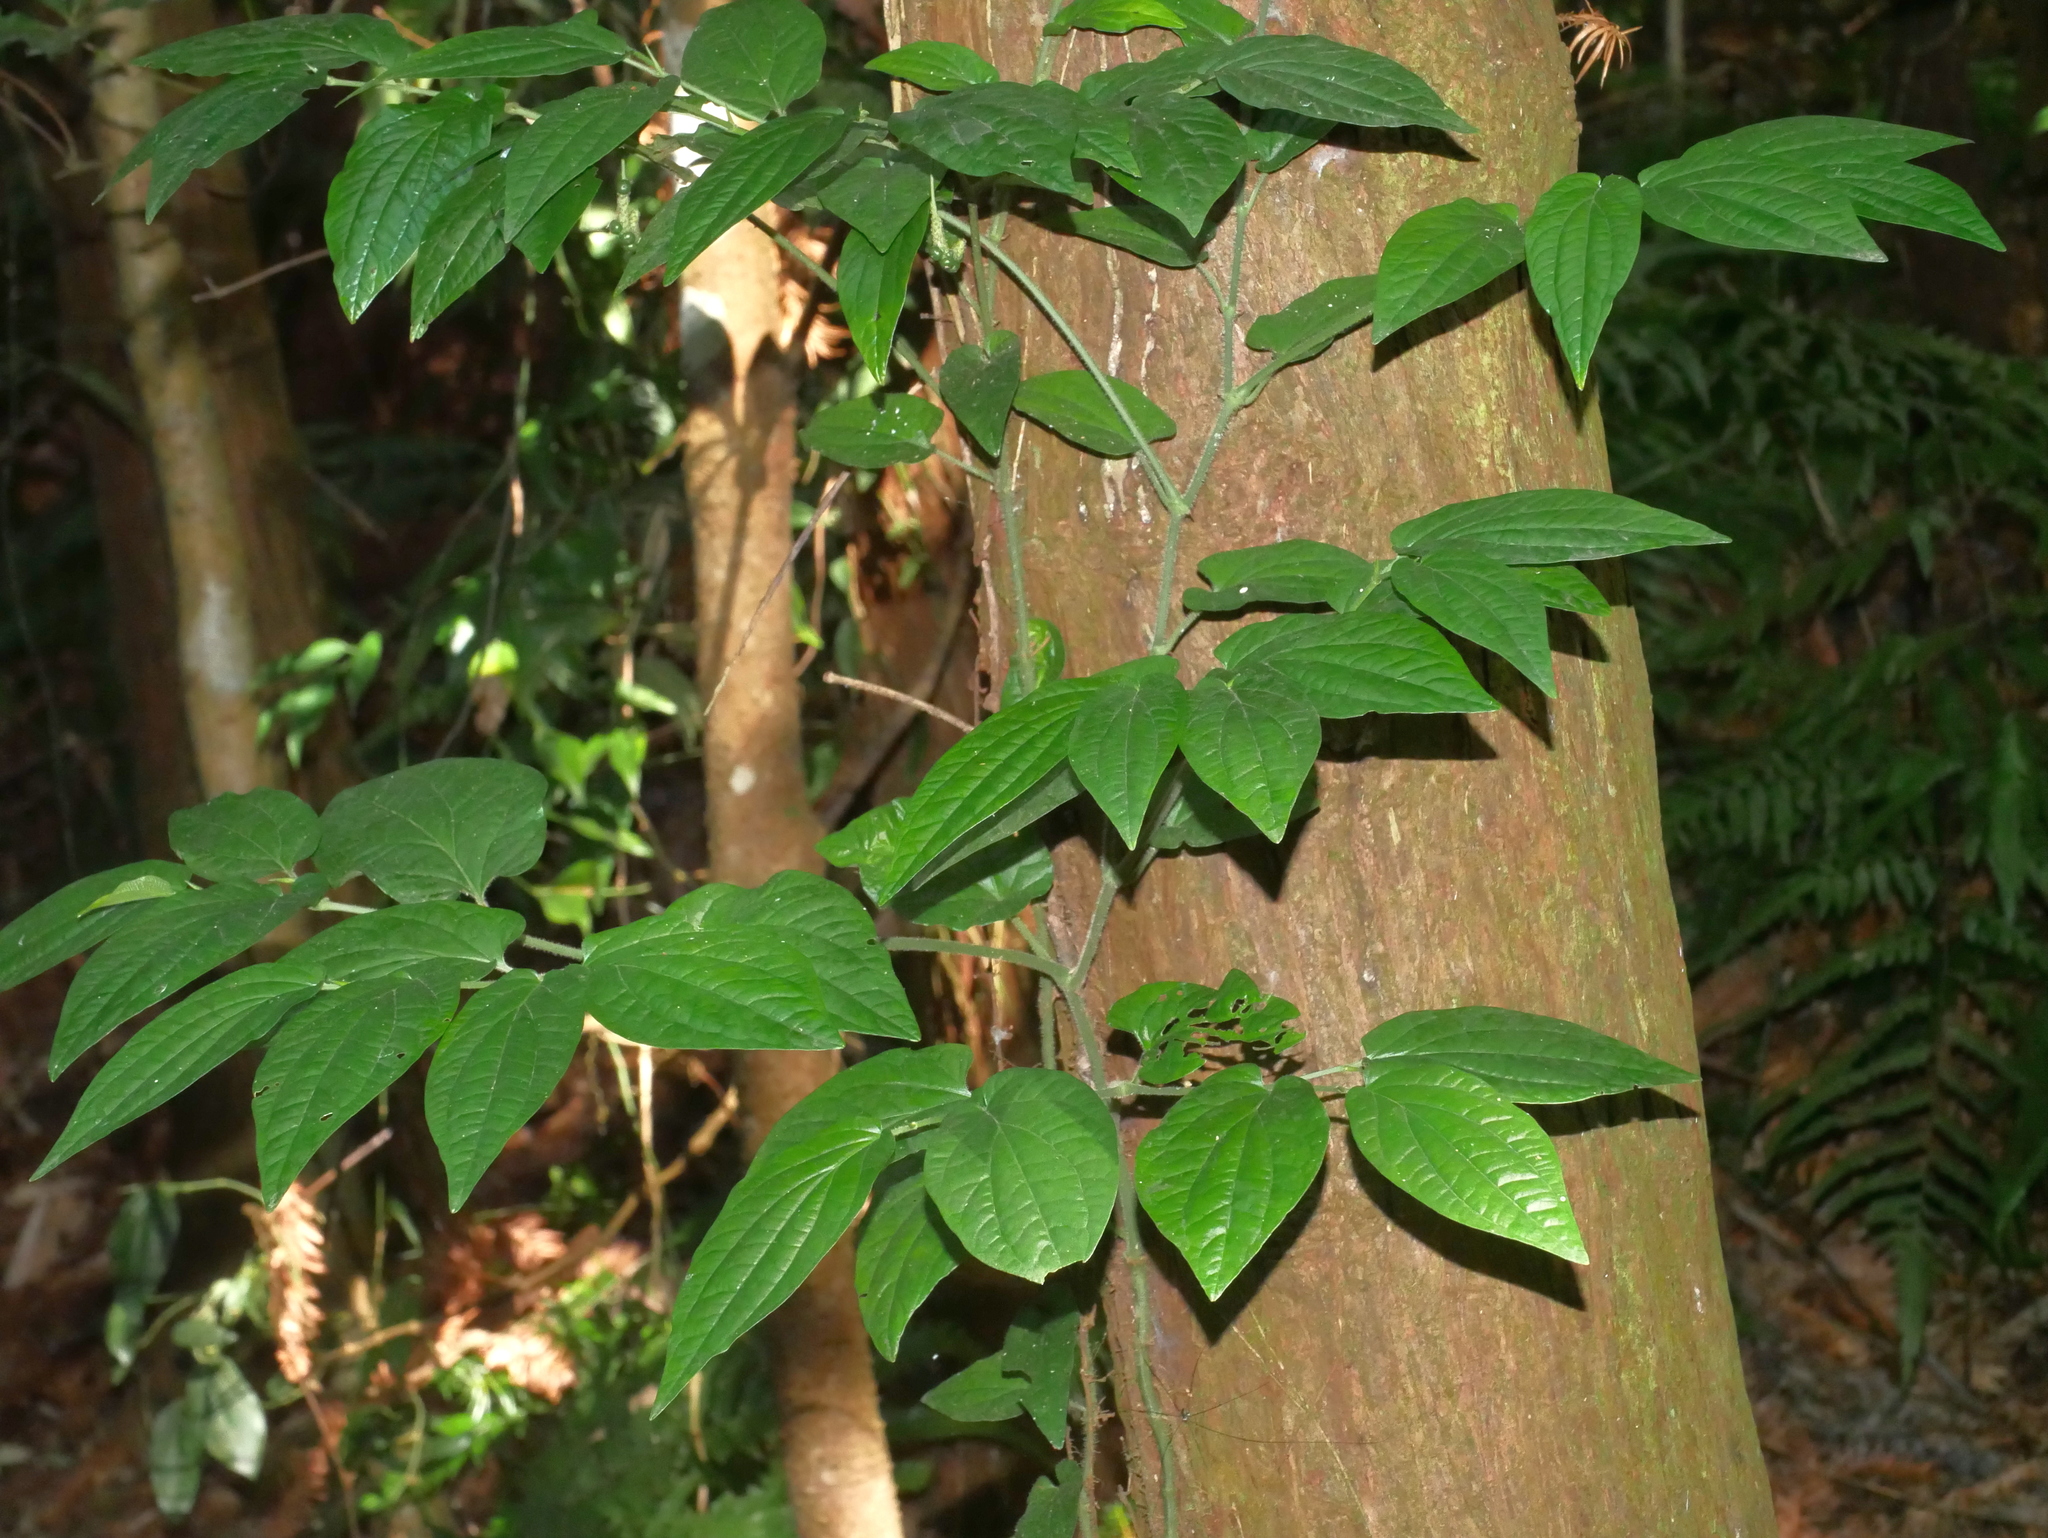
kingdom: Plantae
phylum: Tracheophyta
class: Magnoliopsida
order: Piperales
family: Piperaceae
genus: Piper
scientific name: Piper sintenense
